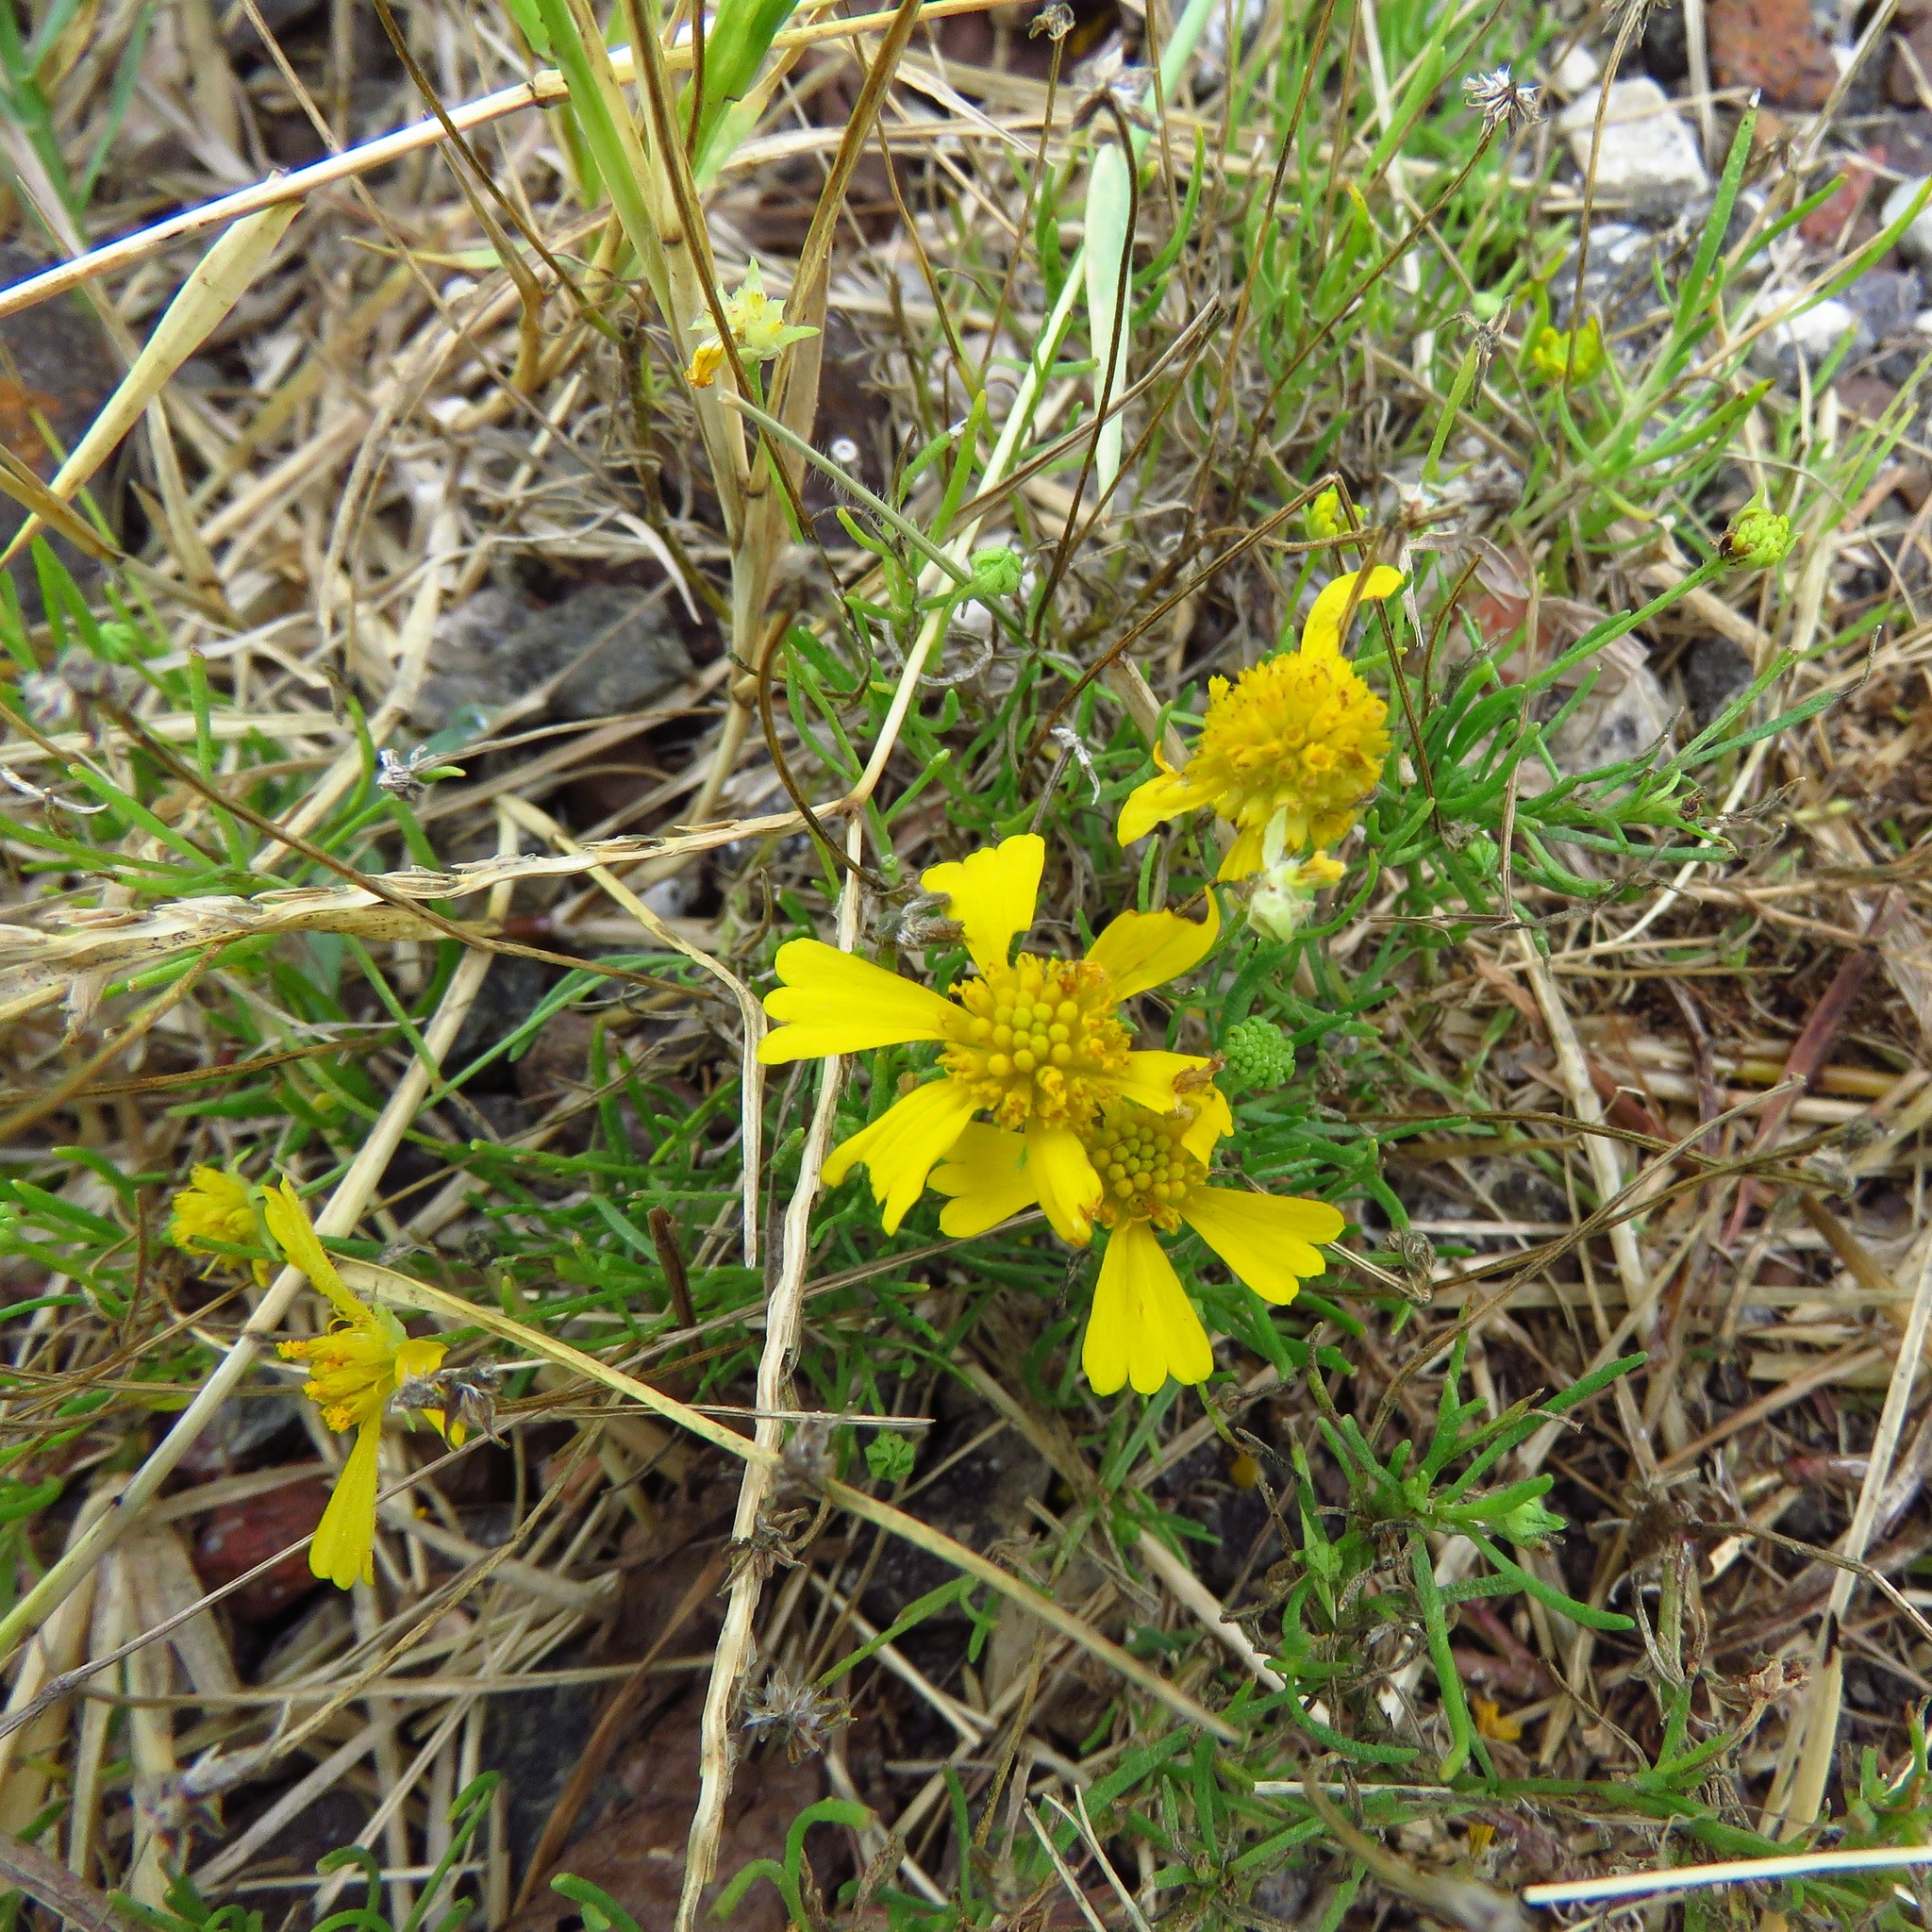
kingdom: Plantae
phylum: Tracheophyta
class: Magnoliopsida
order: Asterales
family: Asteraceae
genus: Helenium
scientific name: Helenium amarum
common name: Bitter sneezeweed
